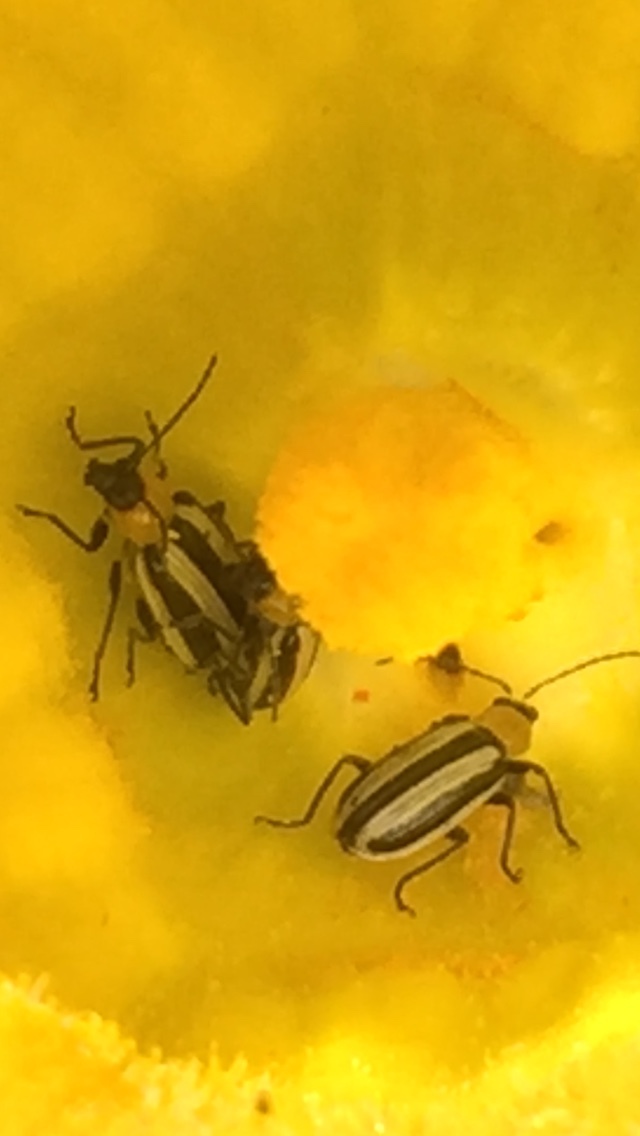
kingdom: Animalia
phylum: Arthropoda
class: Insecta
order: Coleoptera
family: Chrysomelidae
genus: Acalymma
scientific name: Acalymma trivittatum
